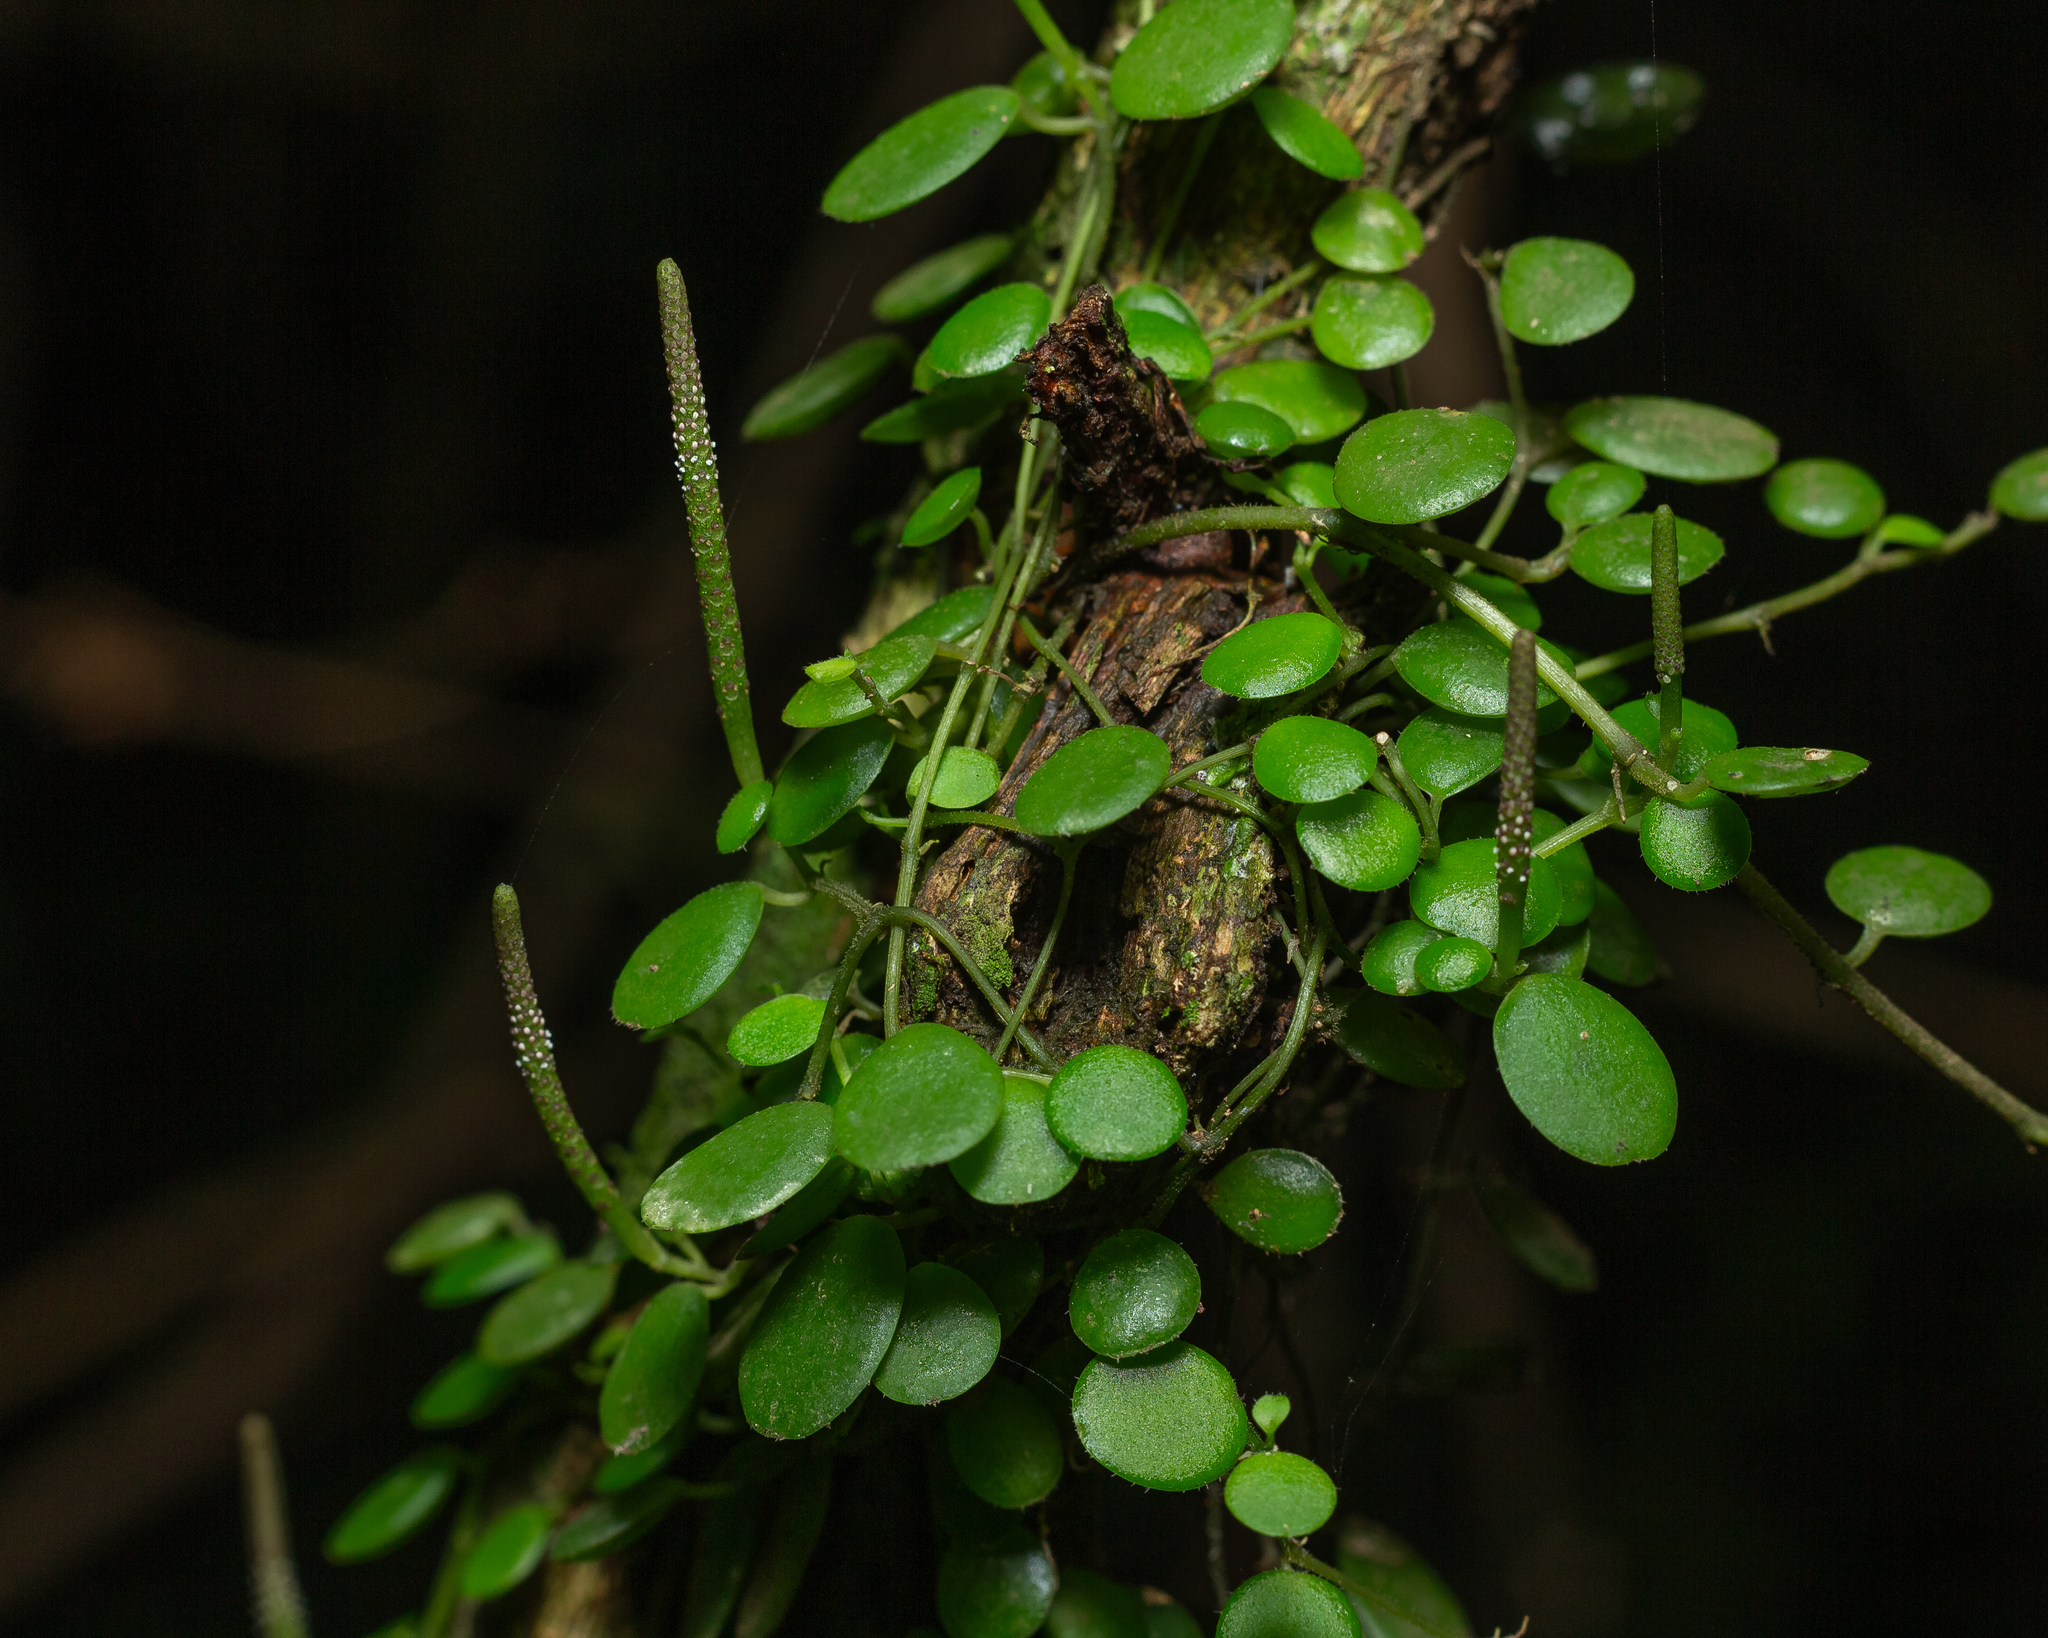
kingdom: Plantae
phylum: Tracheophyta
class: Magnoliopsida
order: Piperales
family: Piperaceae
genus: Peperomia
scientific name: Peperomia rotundifolia
